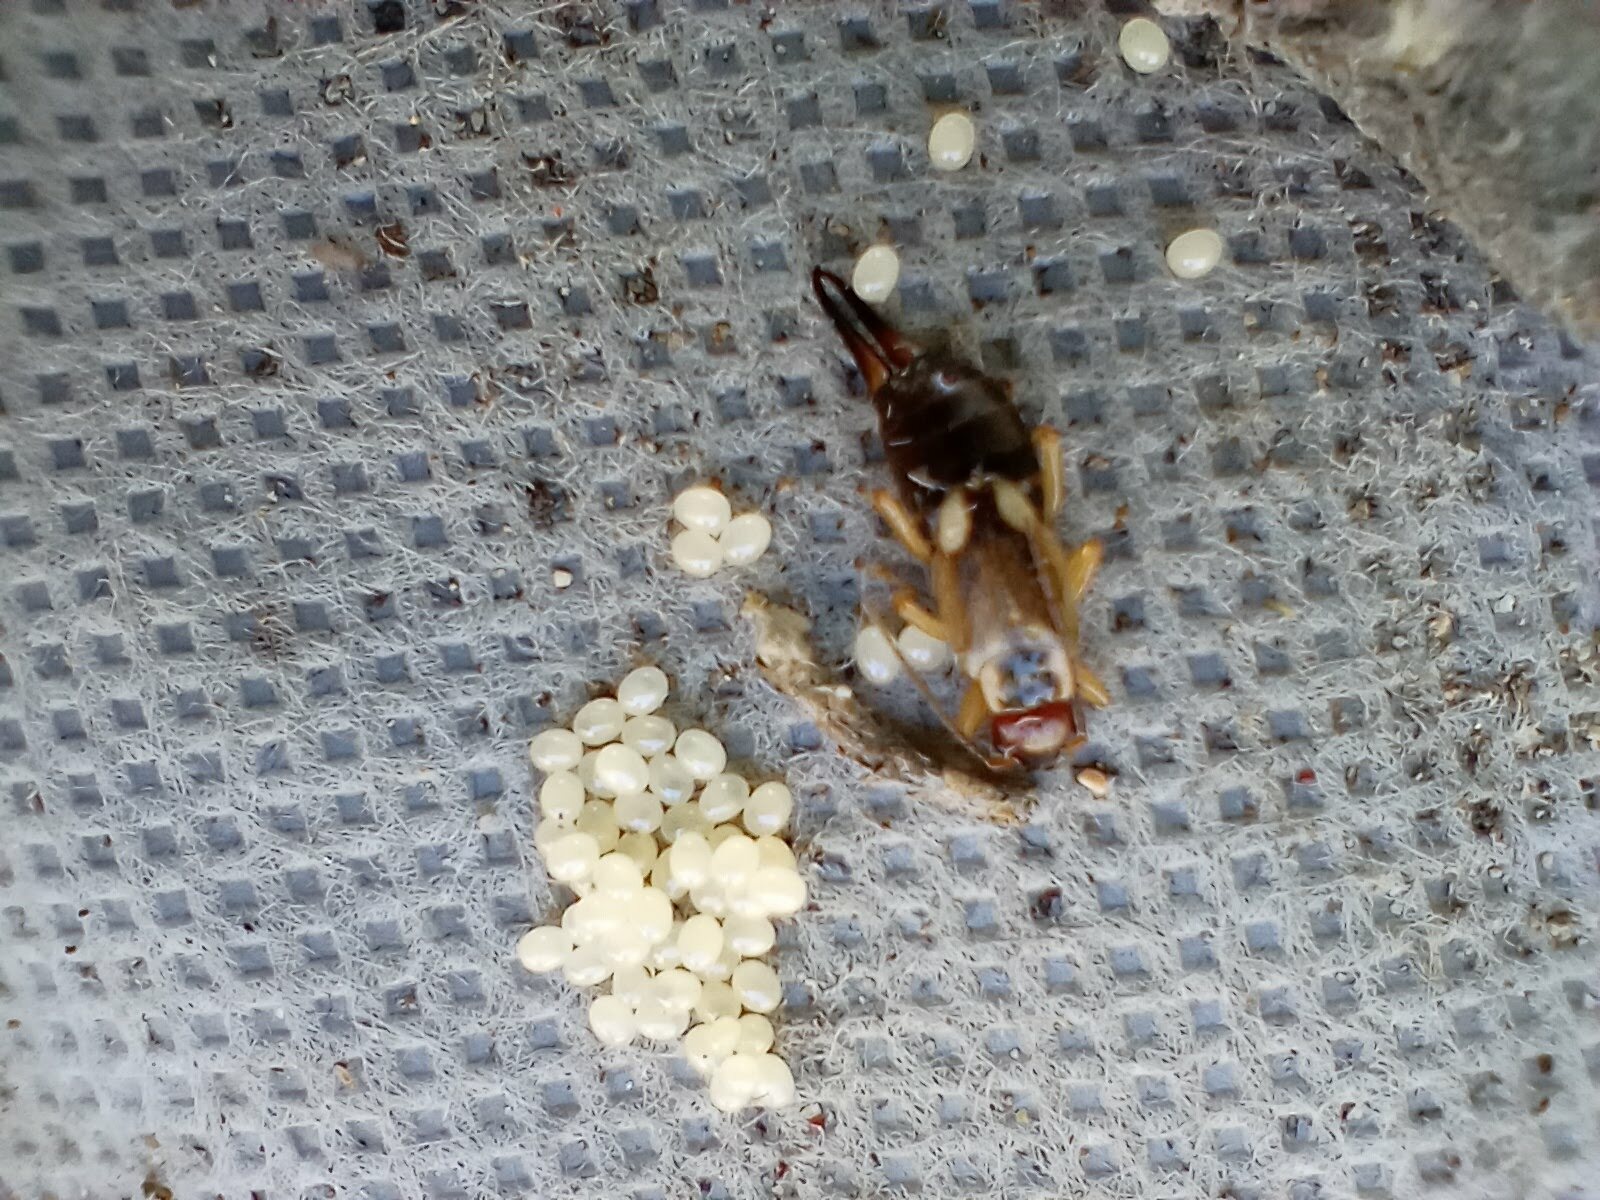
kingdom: Animalia
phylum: Arthropoda
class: Insecta
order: Dermaptera
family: Forficulidae
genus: Forficula
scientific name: Forficula
